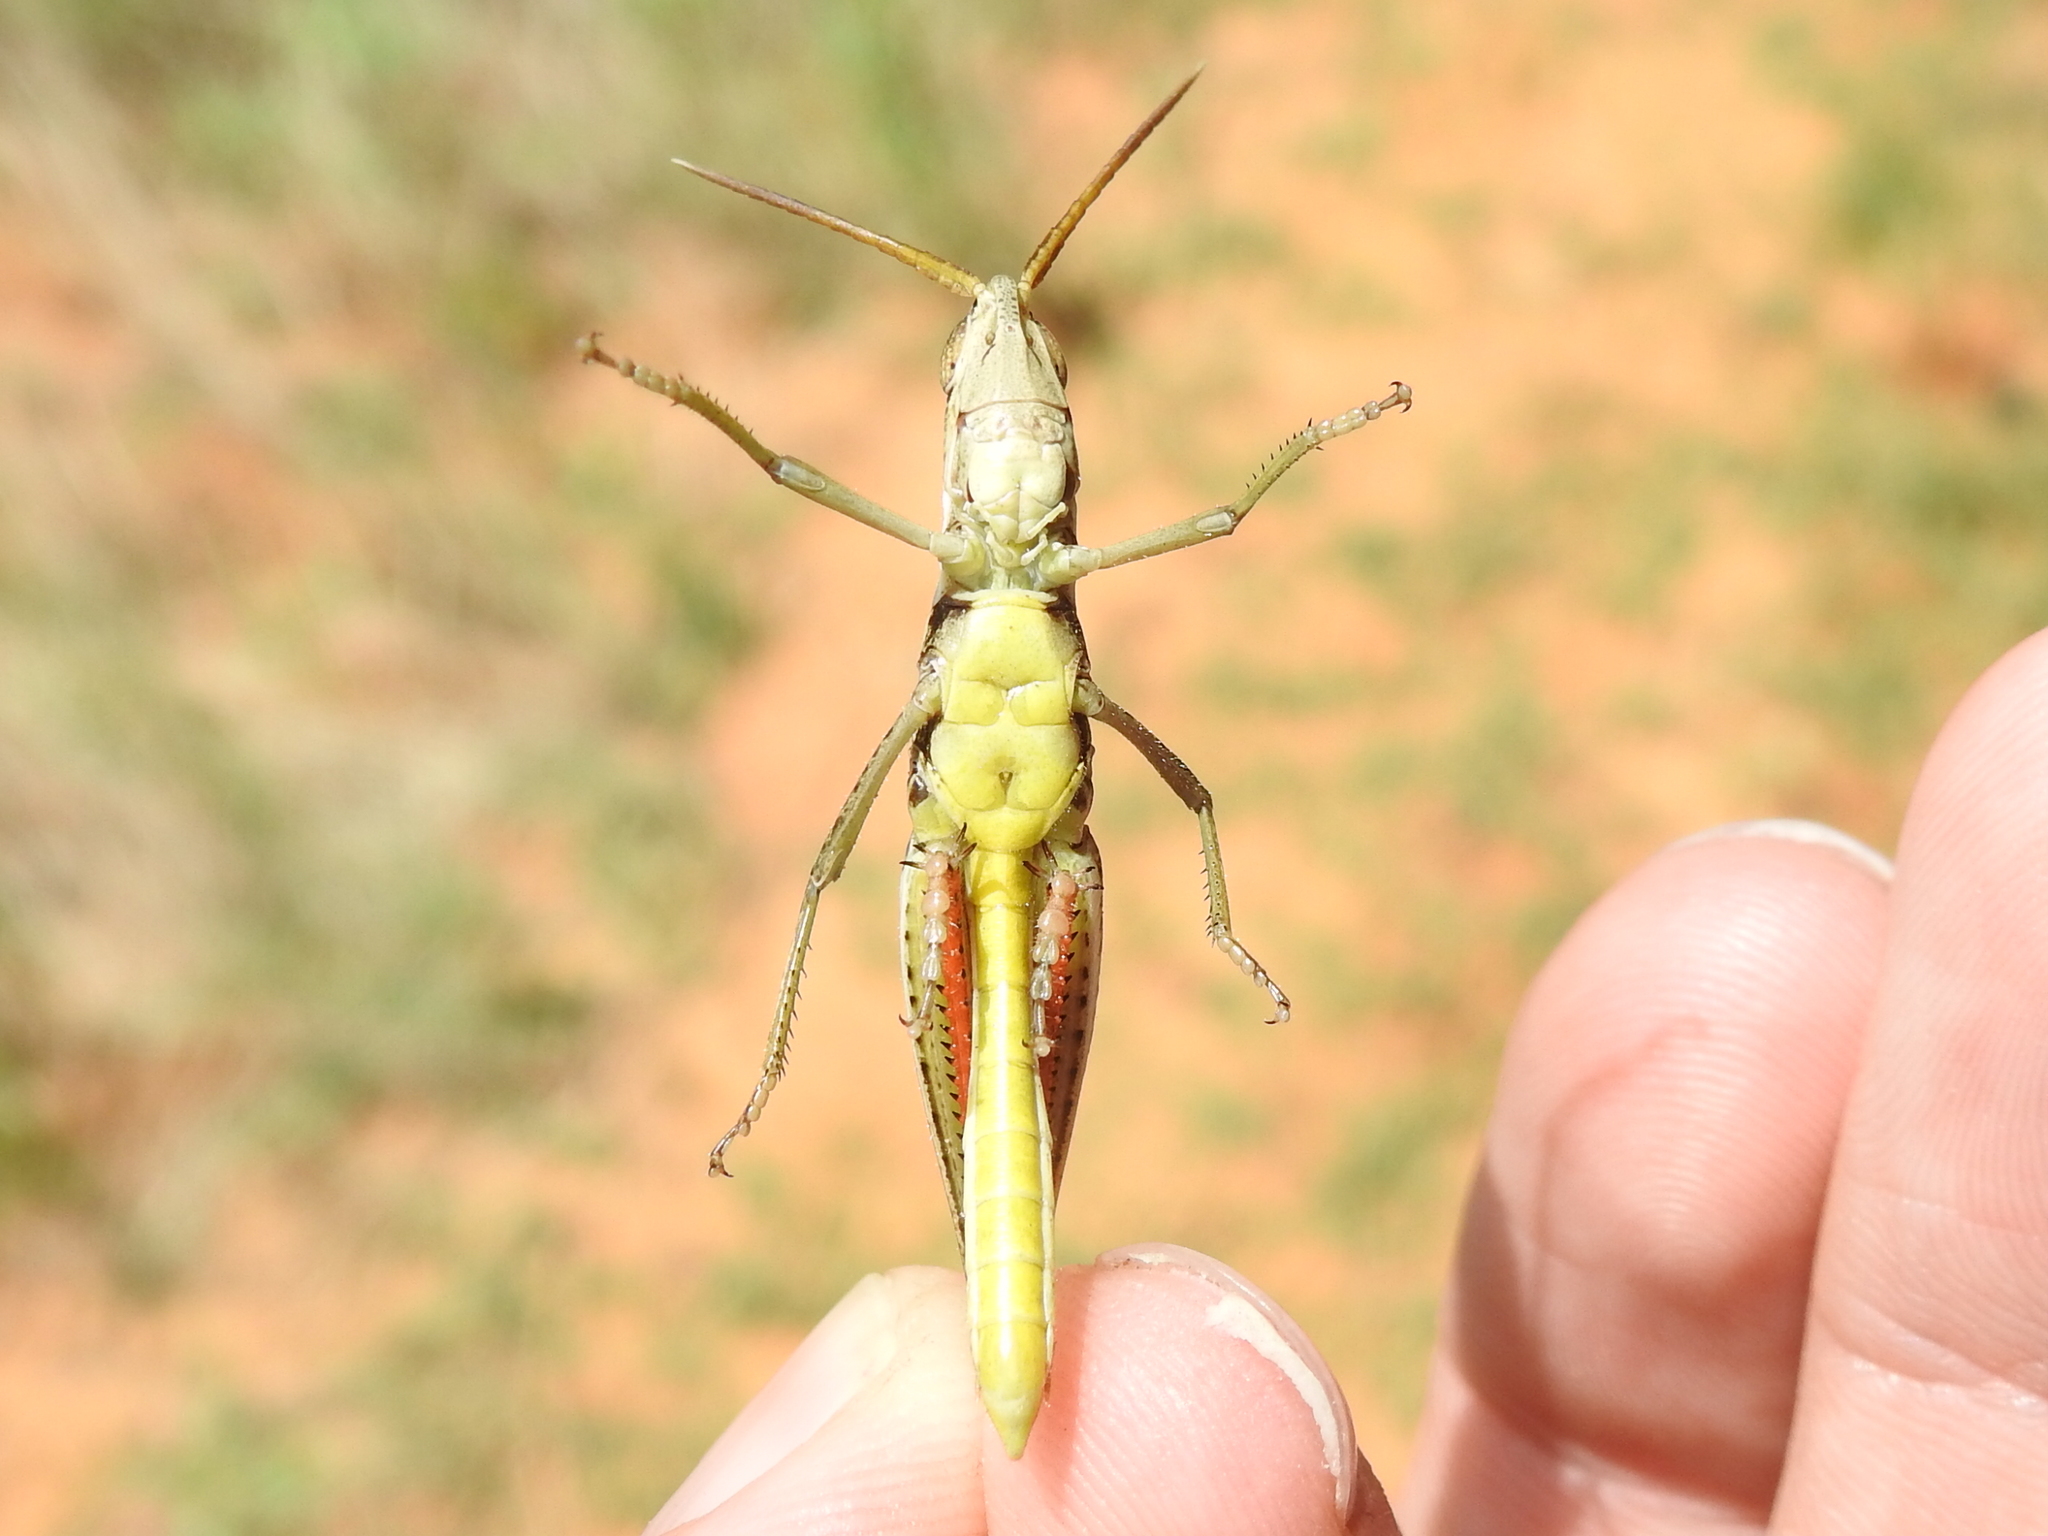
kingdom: Animalia
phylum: Arthropoda
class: Insecta
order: Orthoptera
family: Acrididae
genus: Mermiria
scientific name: Mermiria bivittata
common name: Two-striped mermiria grasshopper
